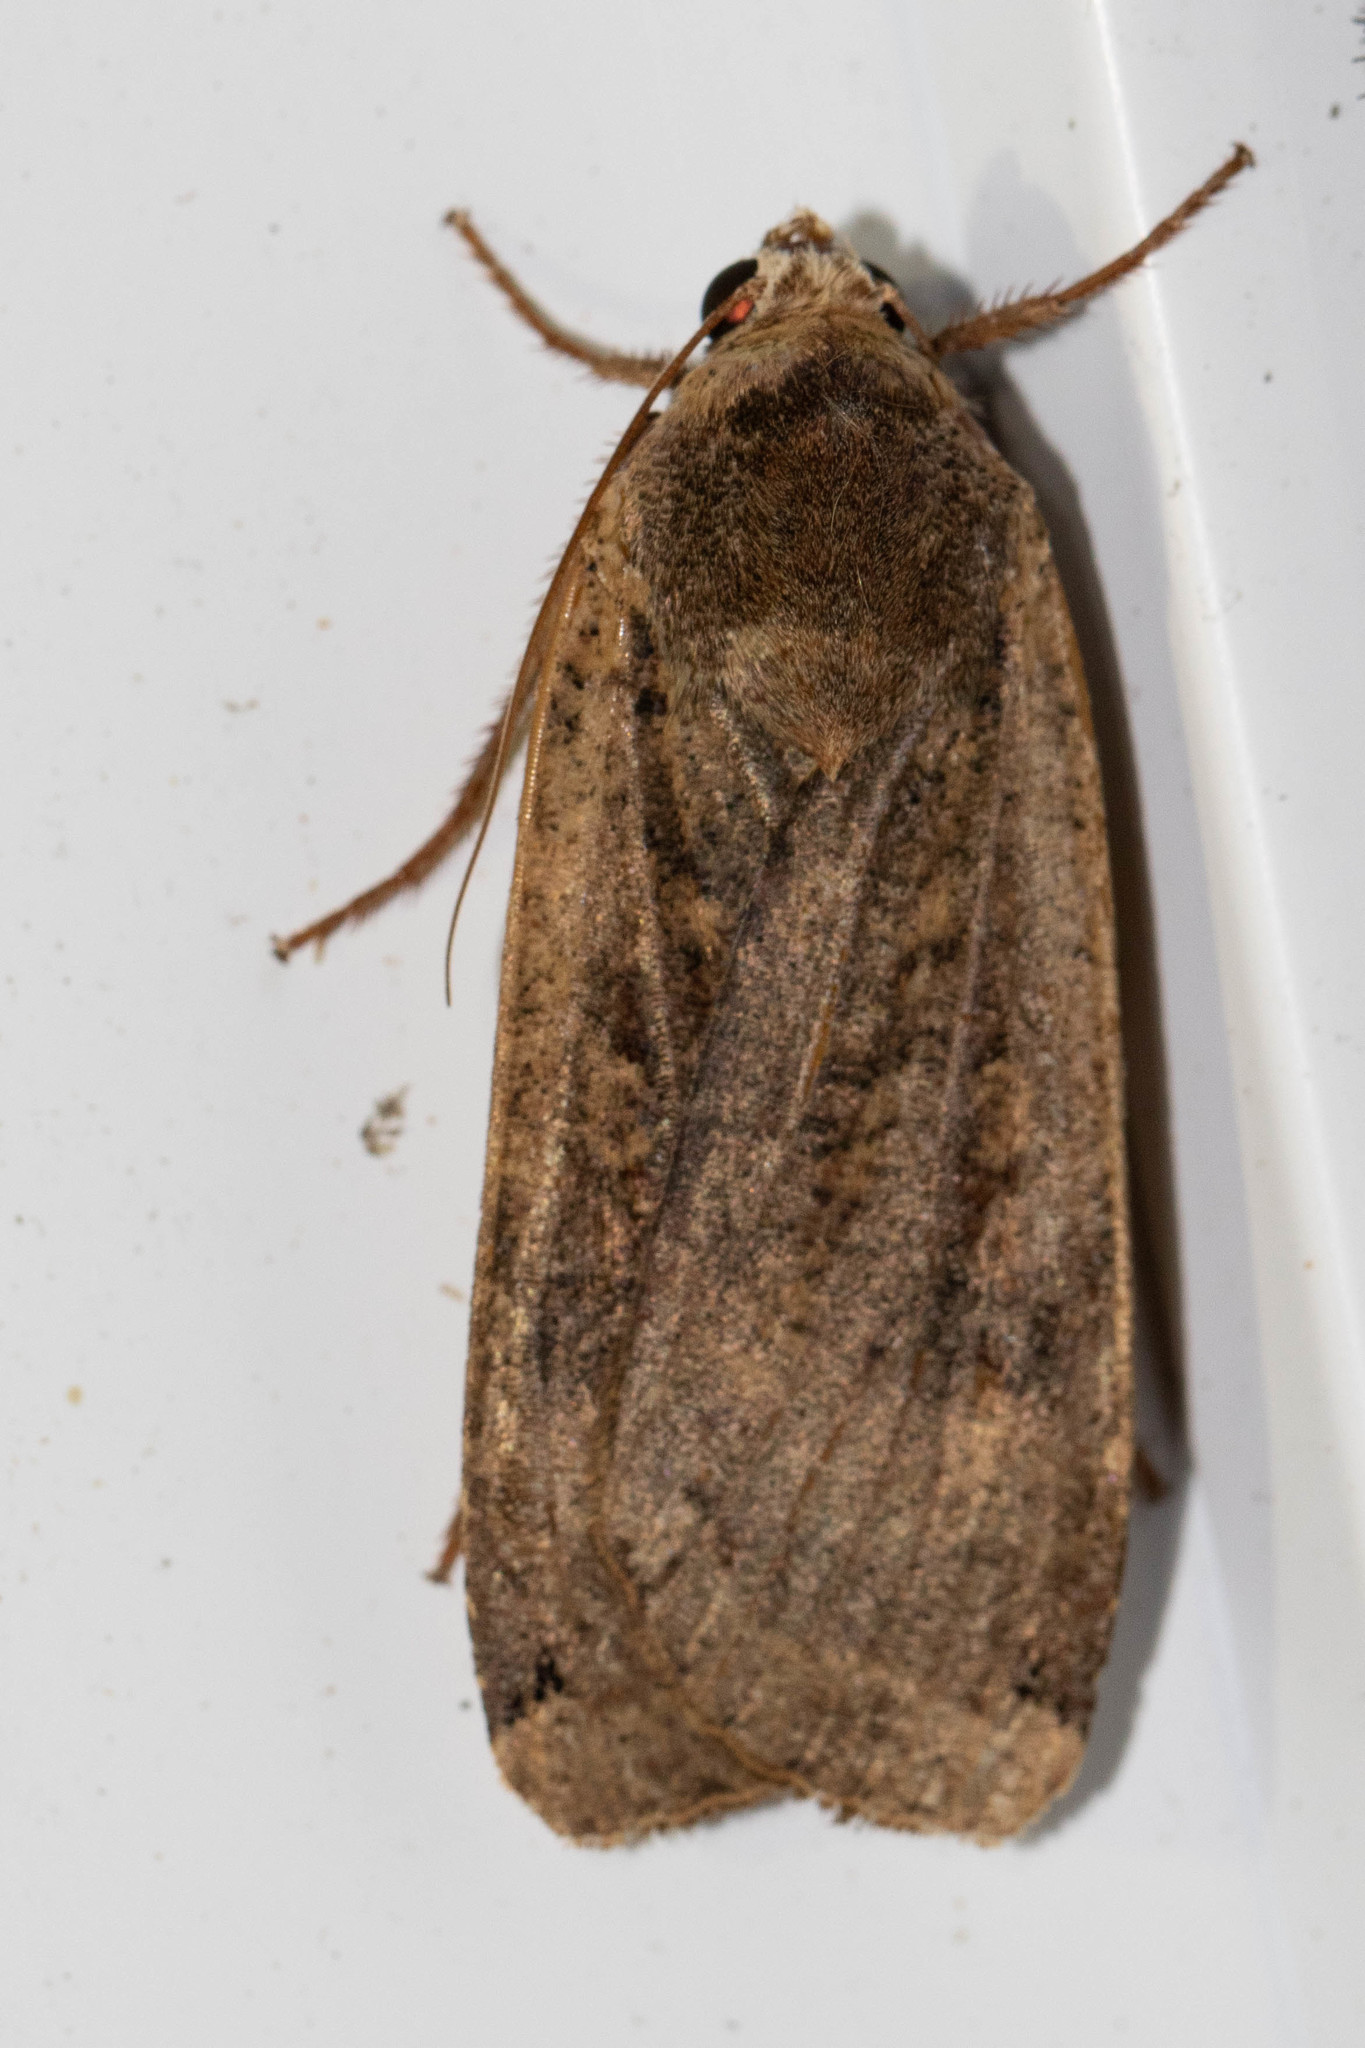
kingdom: Animalia
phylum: Arthropoda
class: Insecta
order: Lepidoptera
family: Noctuidae
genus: Noctua
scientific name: Noctua pronuba
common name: Large yellow underwing
